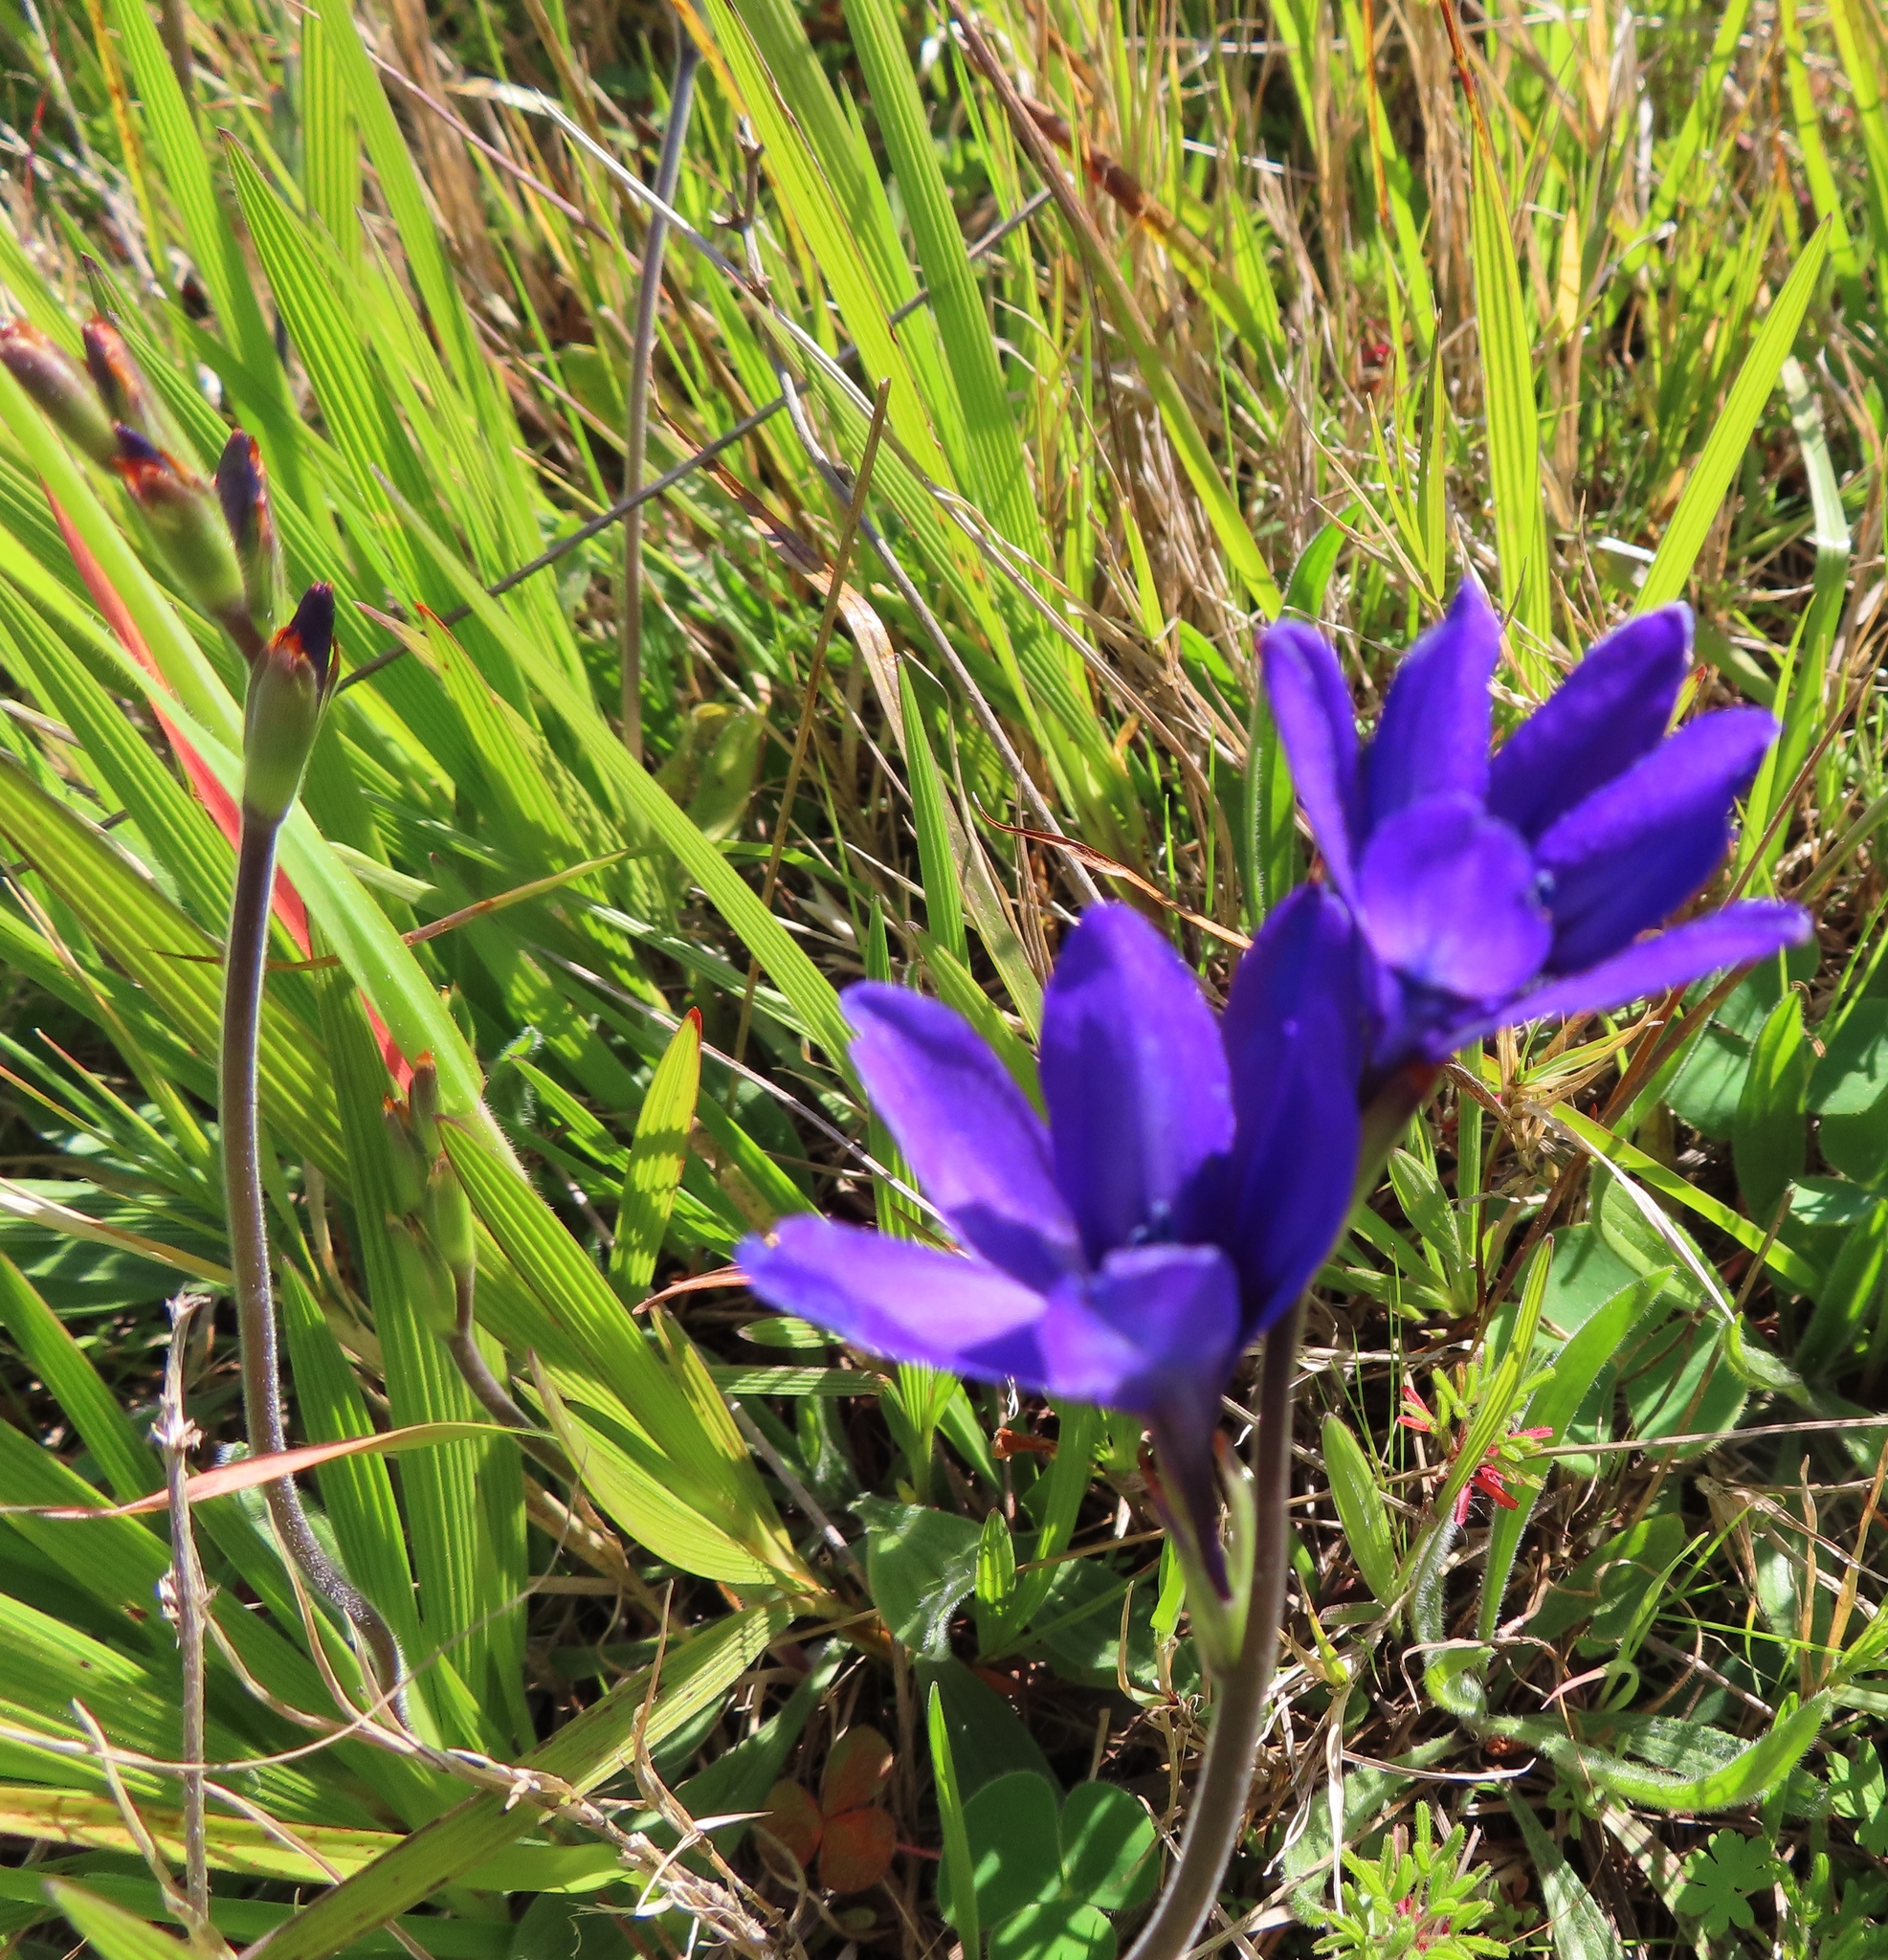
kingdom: Plantae
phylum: Tracheophyta
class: Liliopsida
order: Asparagales
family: Iridaceae
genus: Babiana
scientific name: Babiana angustifolia
